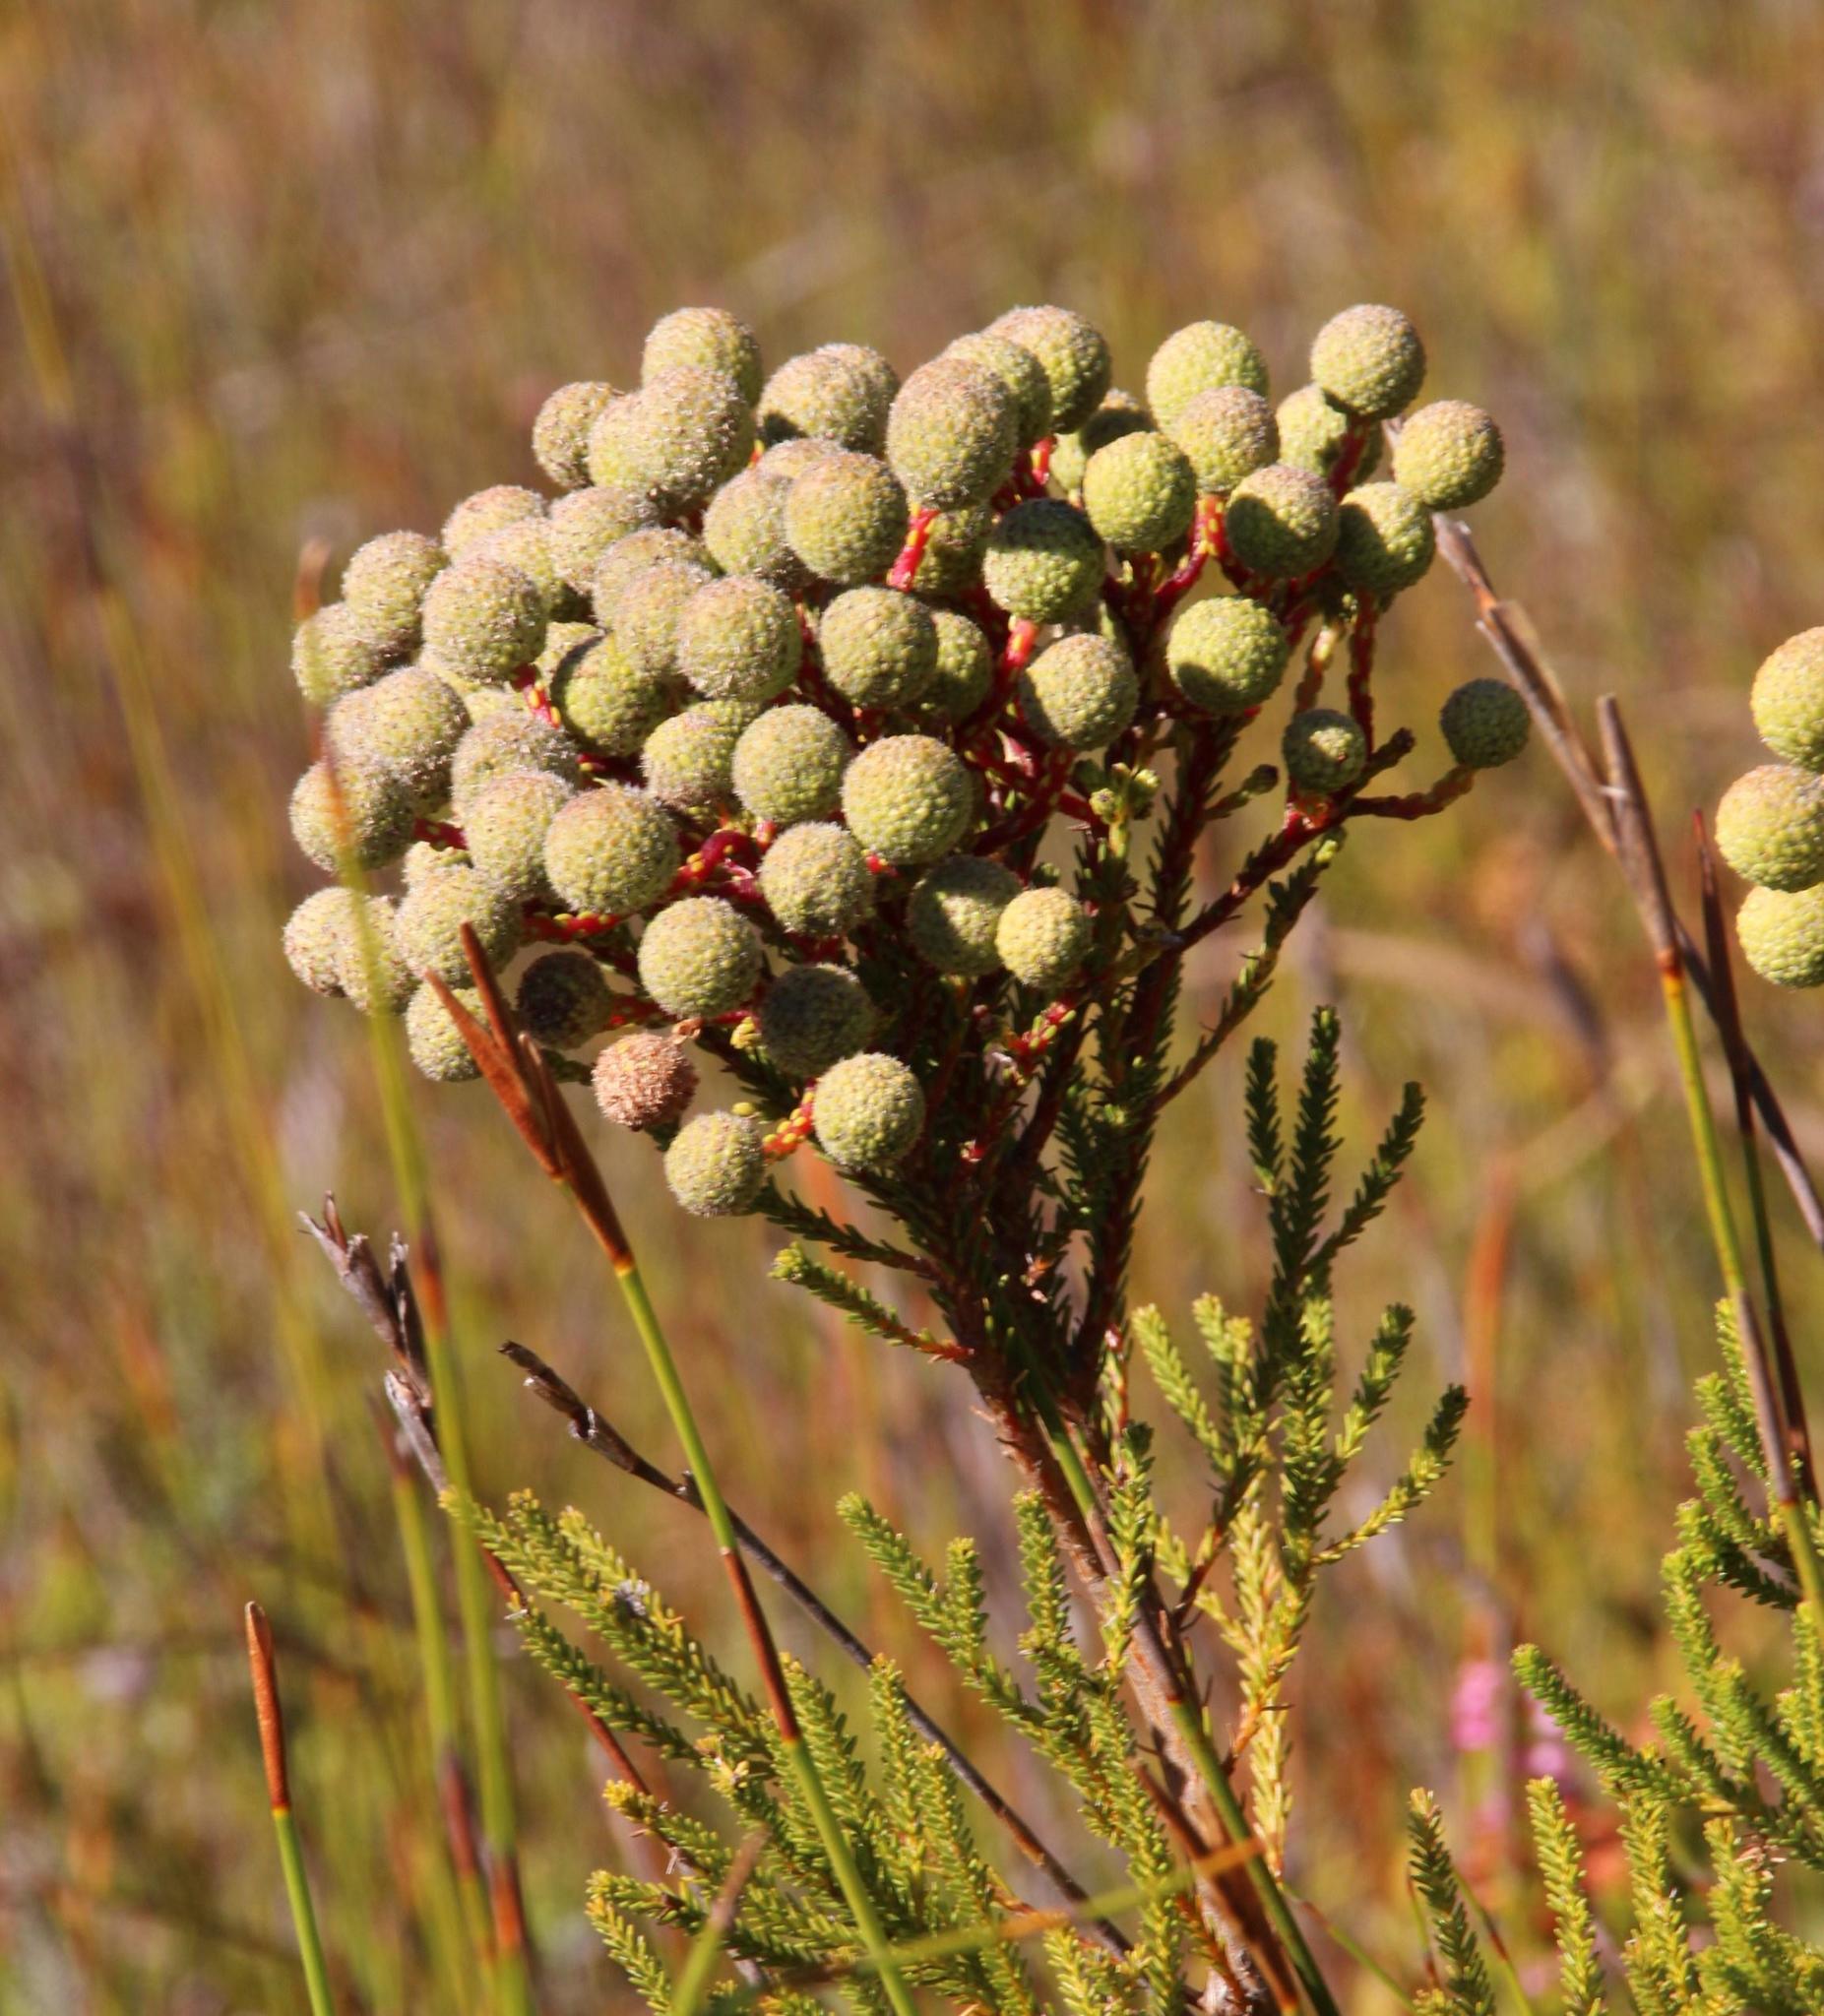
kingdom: Plantae
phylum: Tracheophyta
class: Magnoliopsida
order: Bruniales
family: Bruniaceae
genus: Berzelia
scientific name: Berzelia abrotanoides
